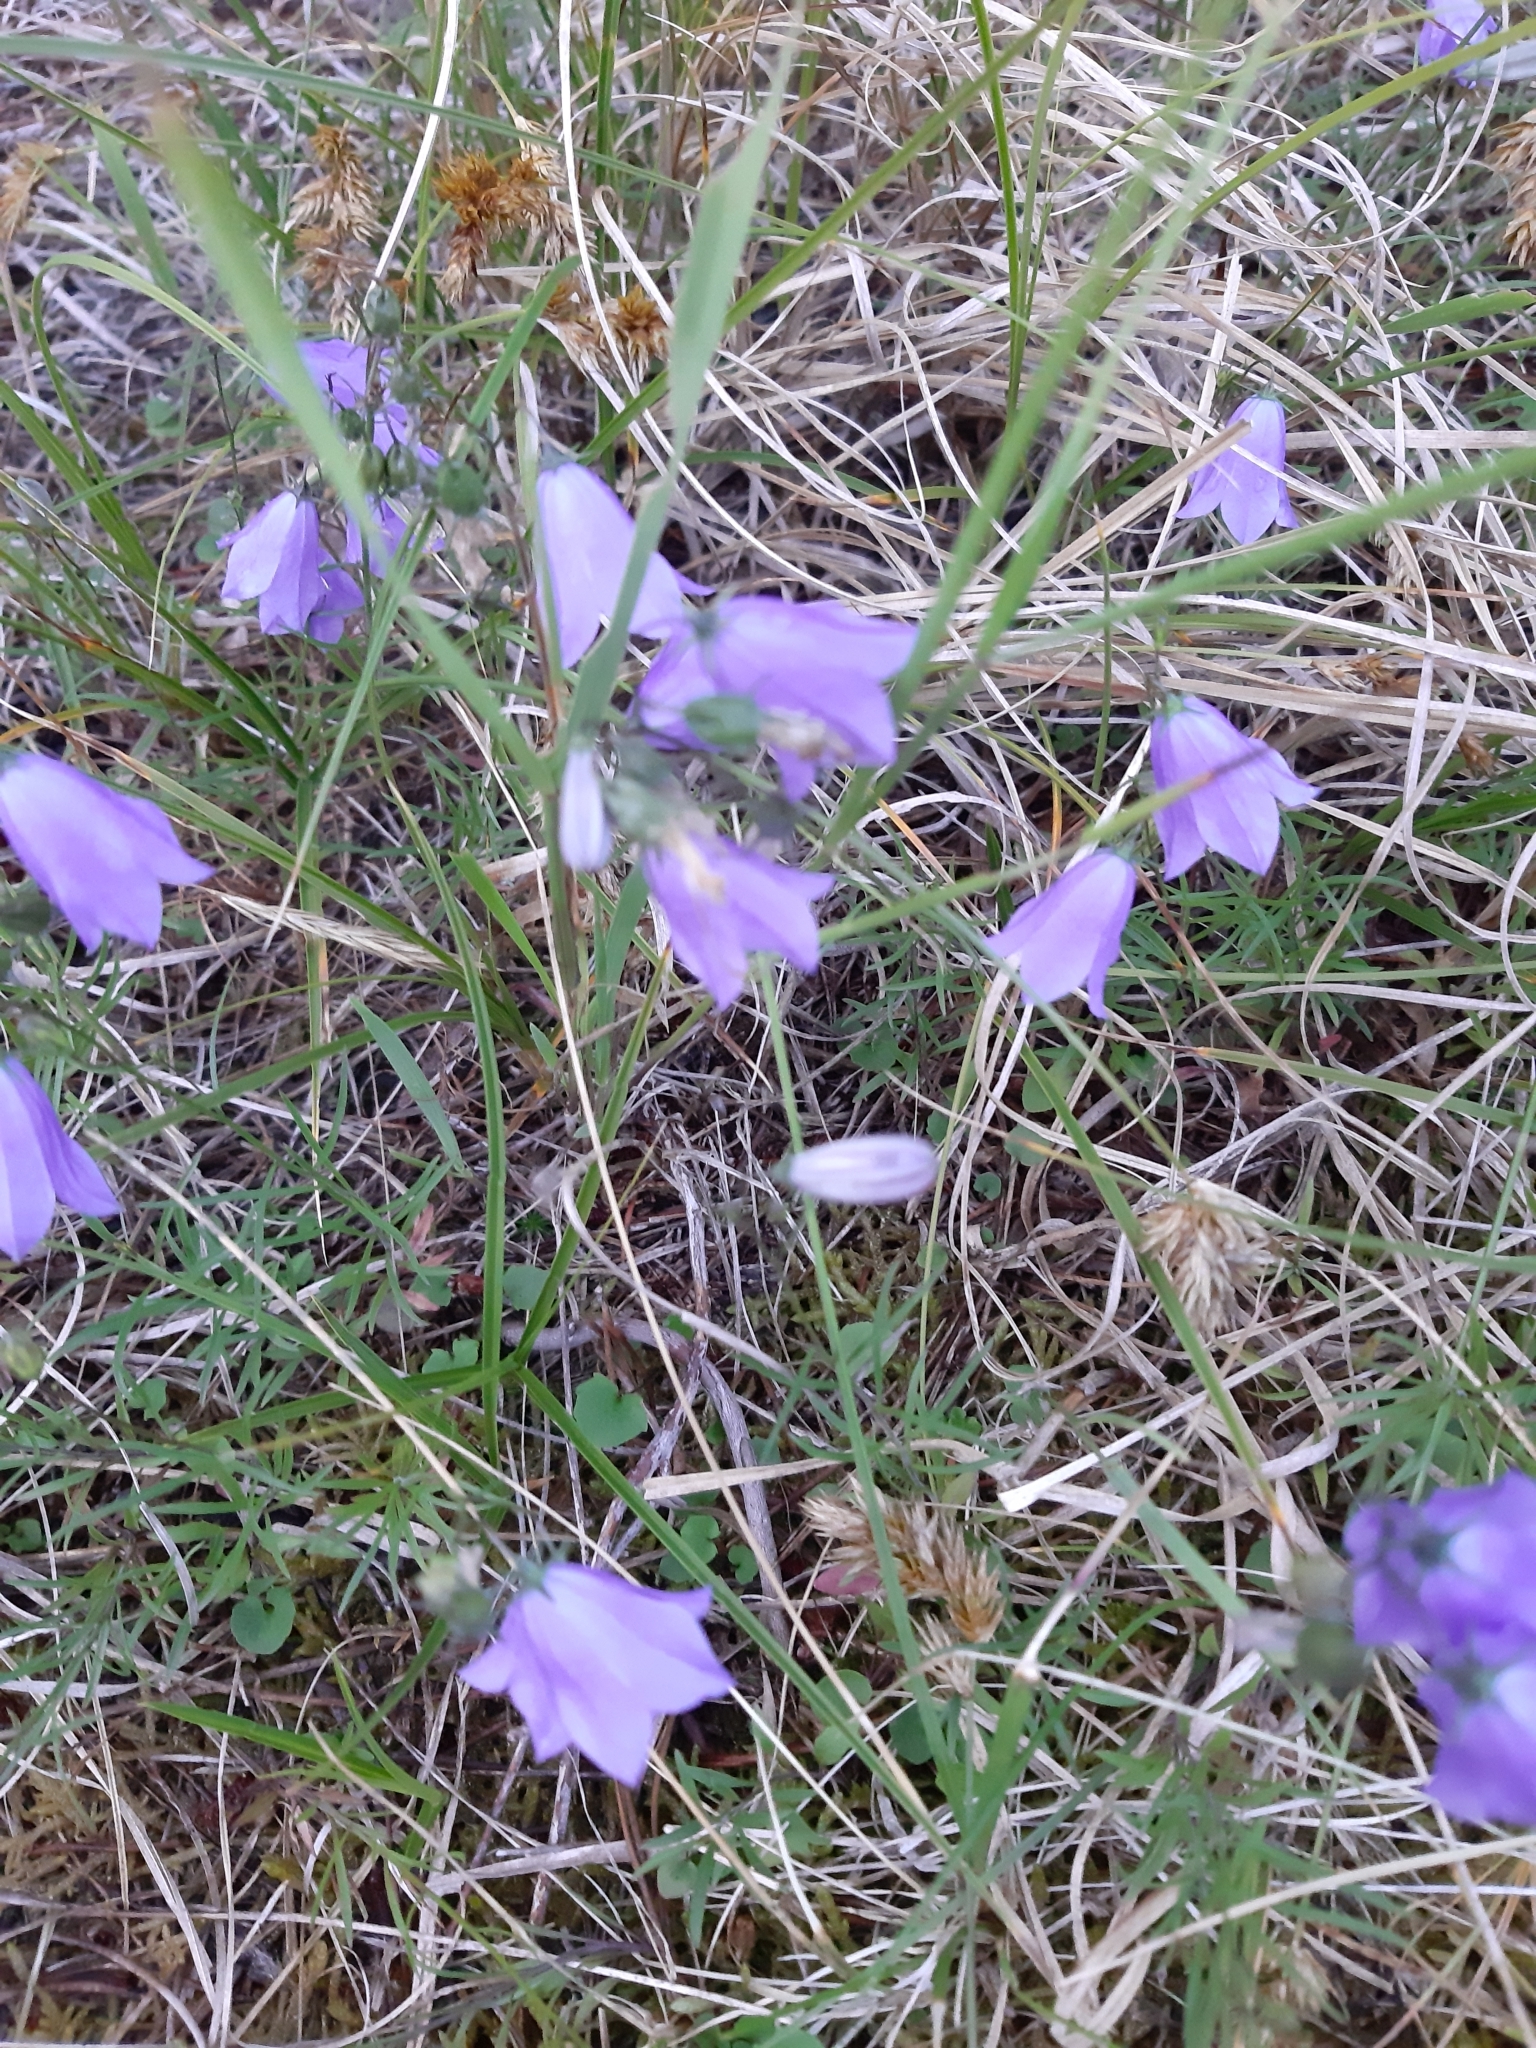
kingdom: Plantae
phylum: Tracheophyta
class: Magnoliopsida
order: Asterales
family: Campanulaceae
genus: Campanula
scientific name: Campanula rotundifolia
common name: Harebell
